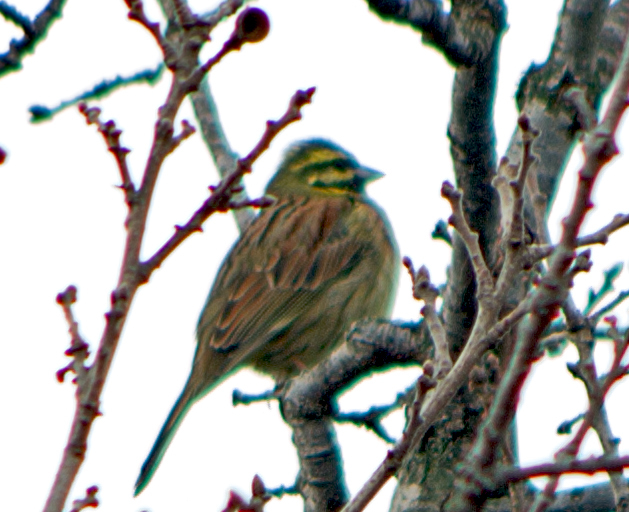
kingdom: Animalia
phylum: Chordata
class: Aves
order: Passeriformes
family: Emberizidae
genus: Emberiza
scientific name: Emberiza cirlus
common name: Cirl bunting
